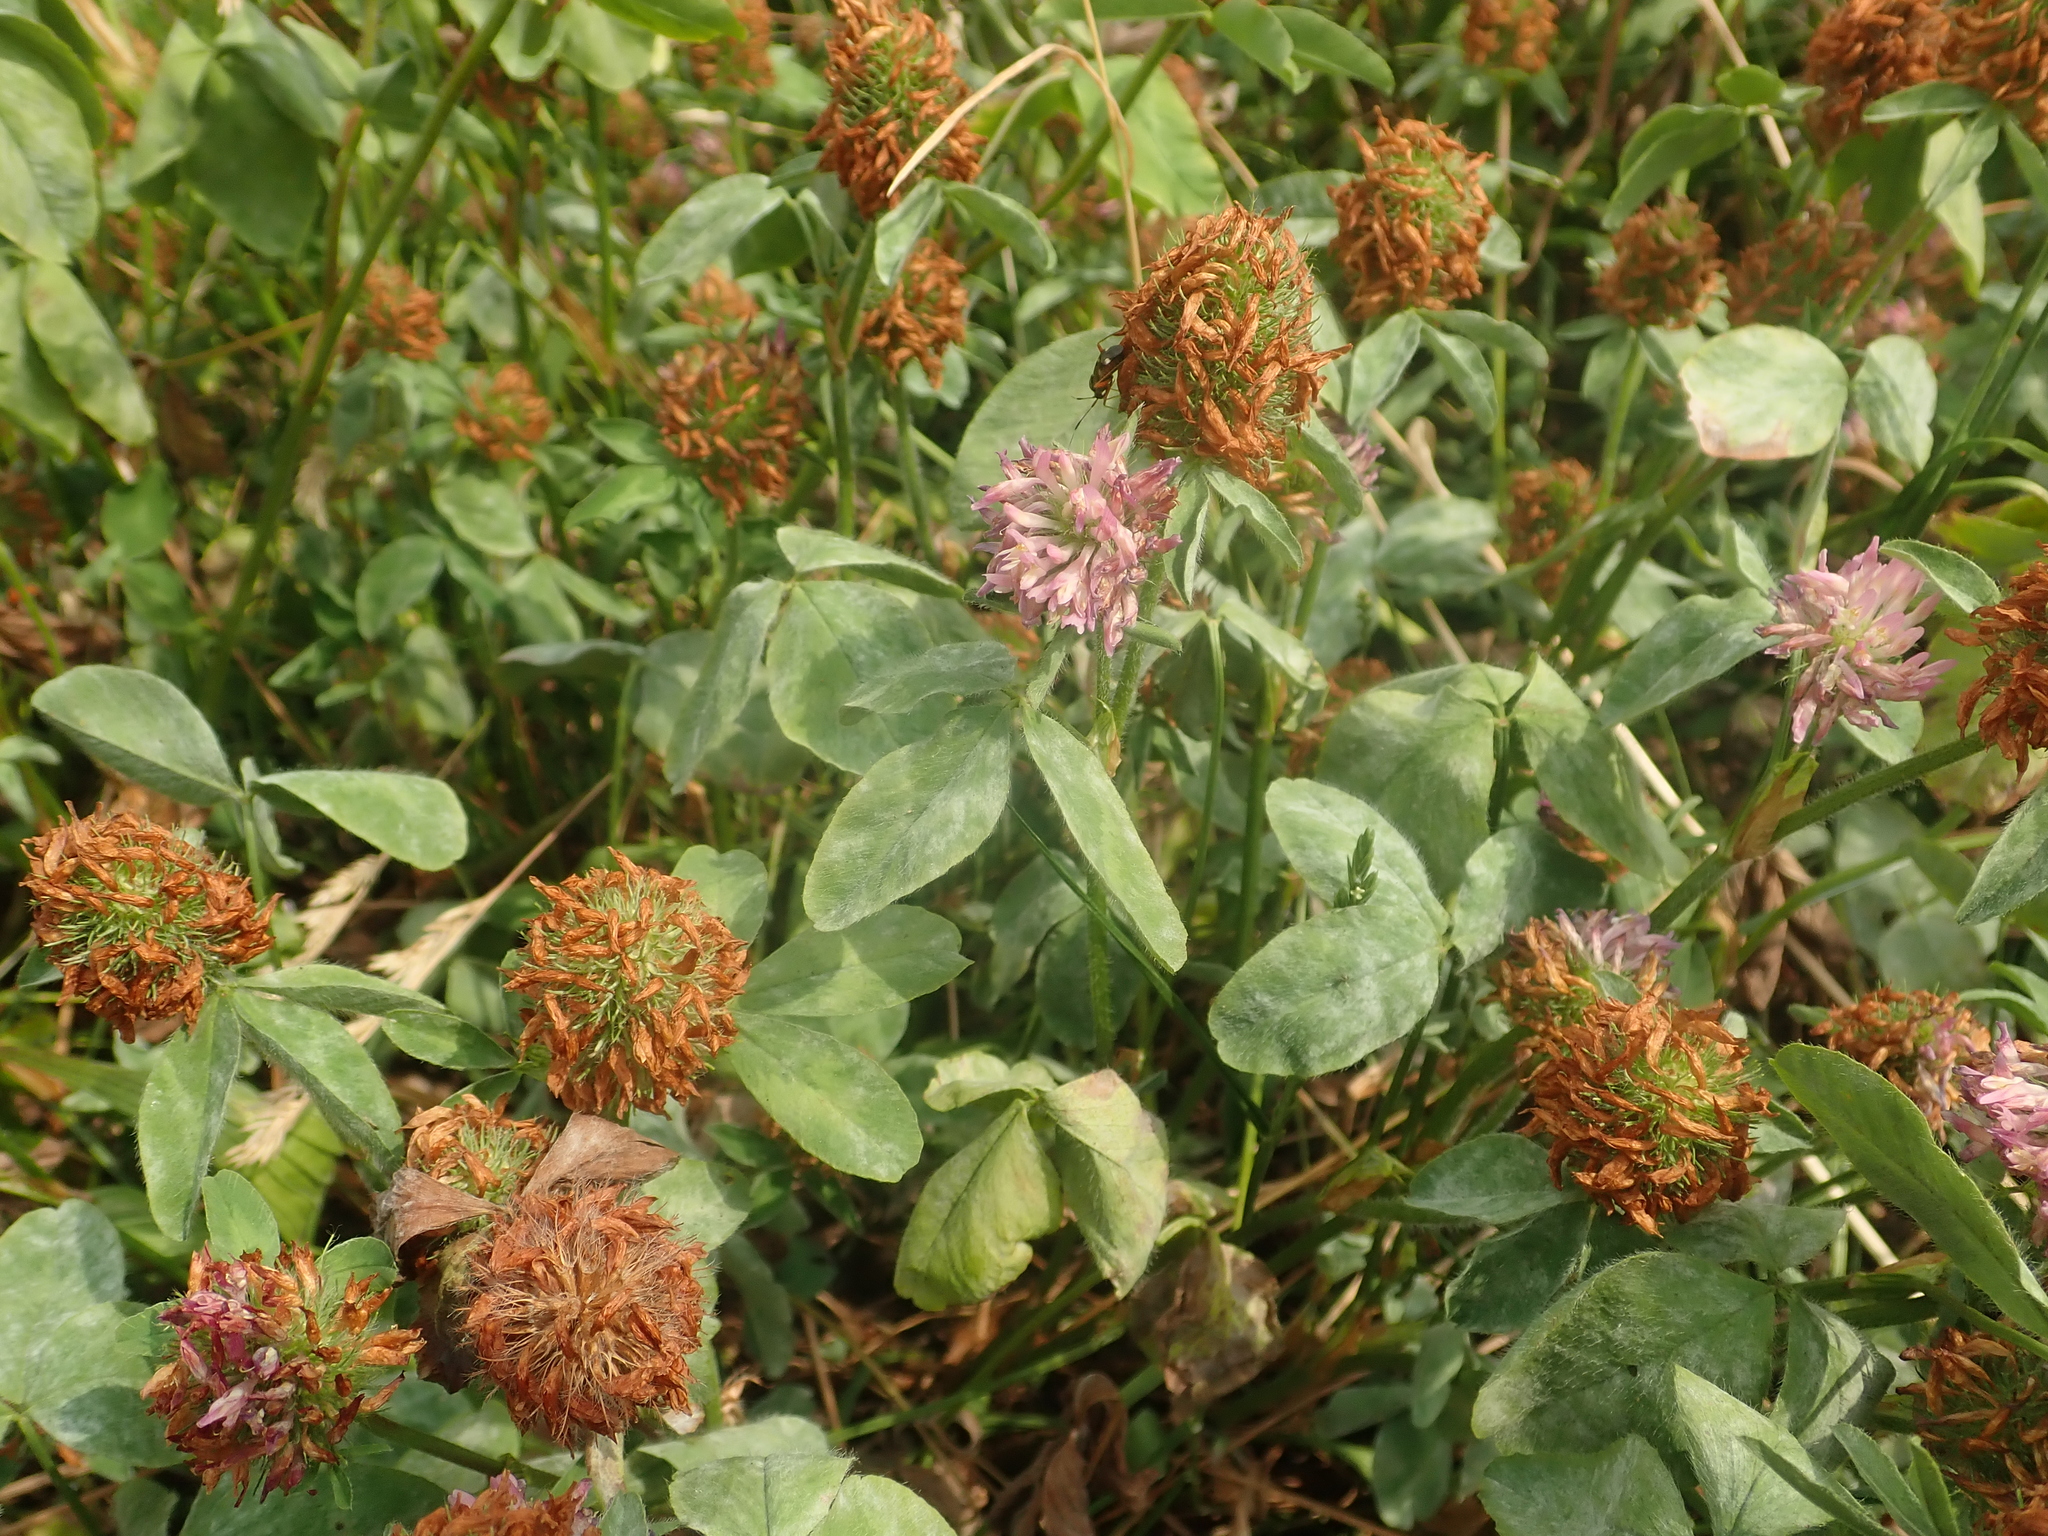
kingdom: Plantae
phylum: Tracheophyta
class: Magnoliopsida
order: Fabales
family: Fabaceae
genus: Trifolium
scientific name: Trifolium pratense
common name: Red clover
